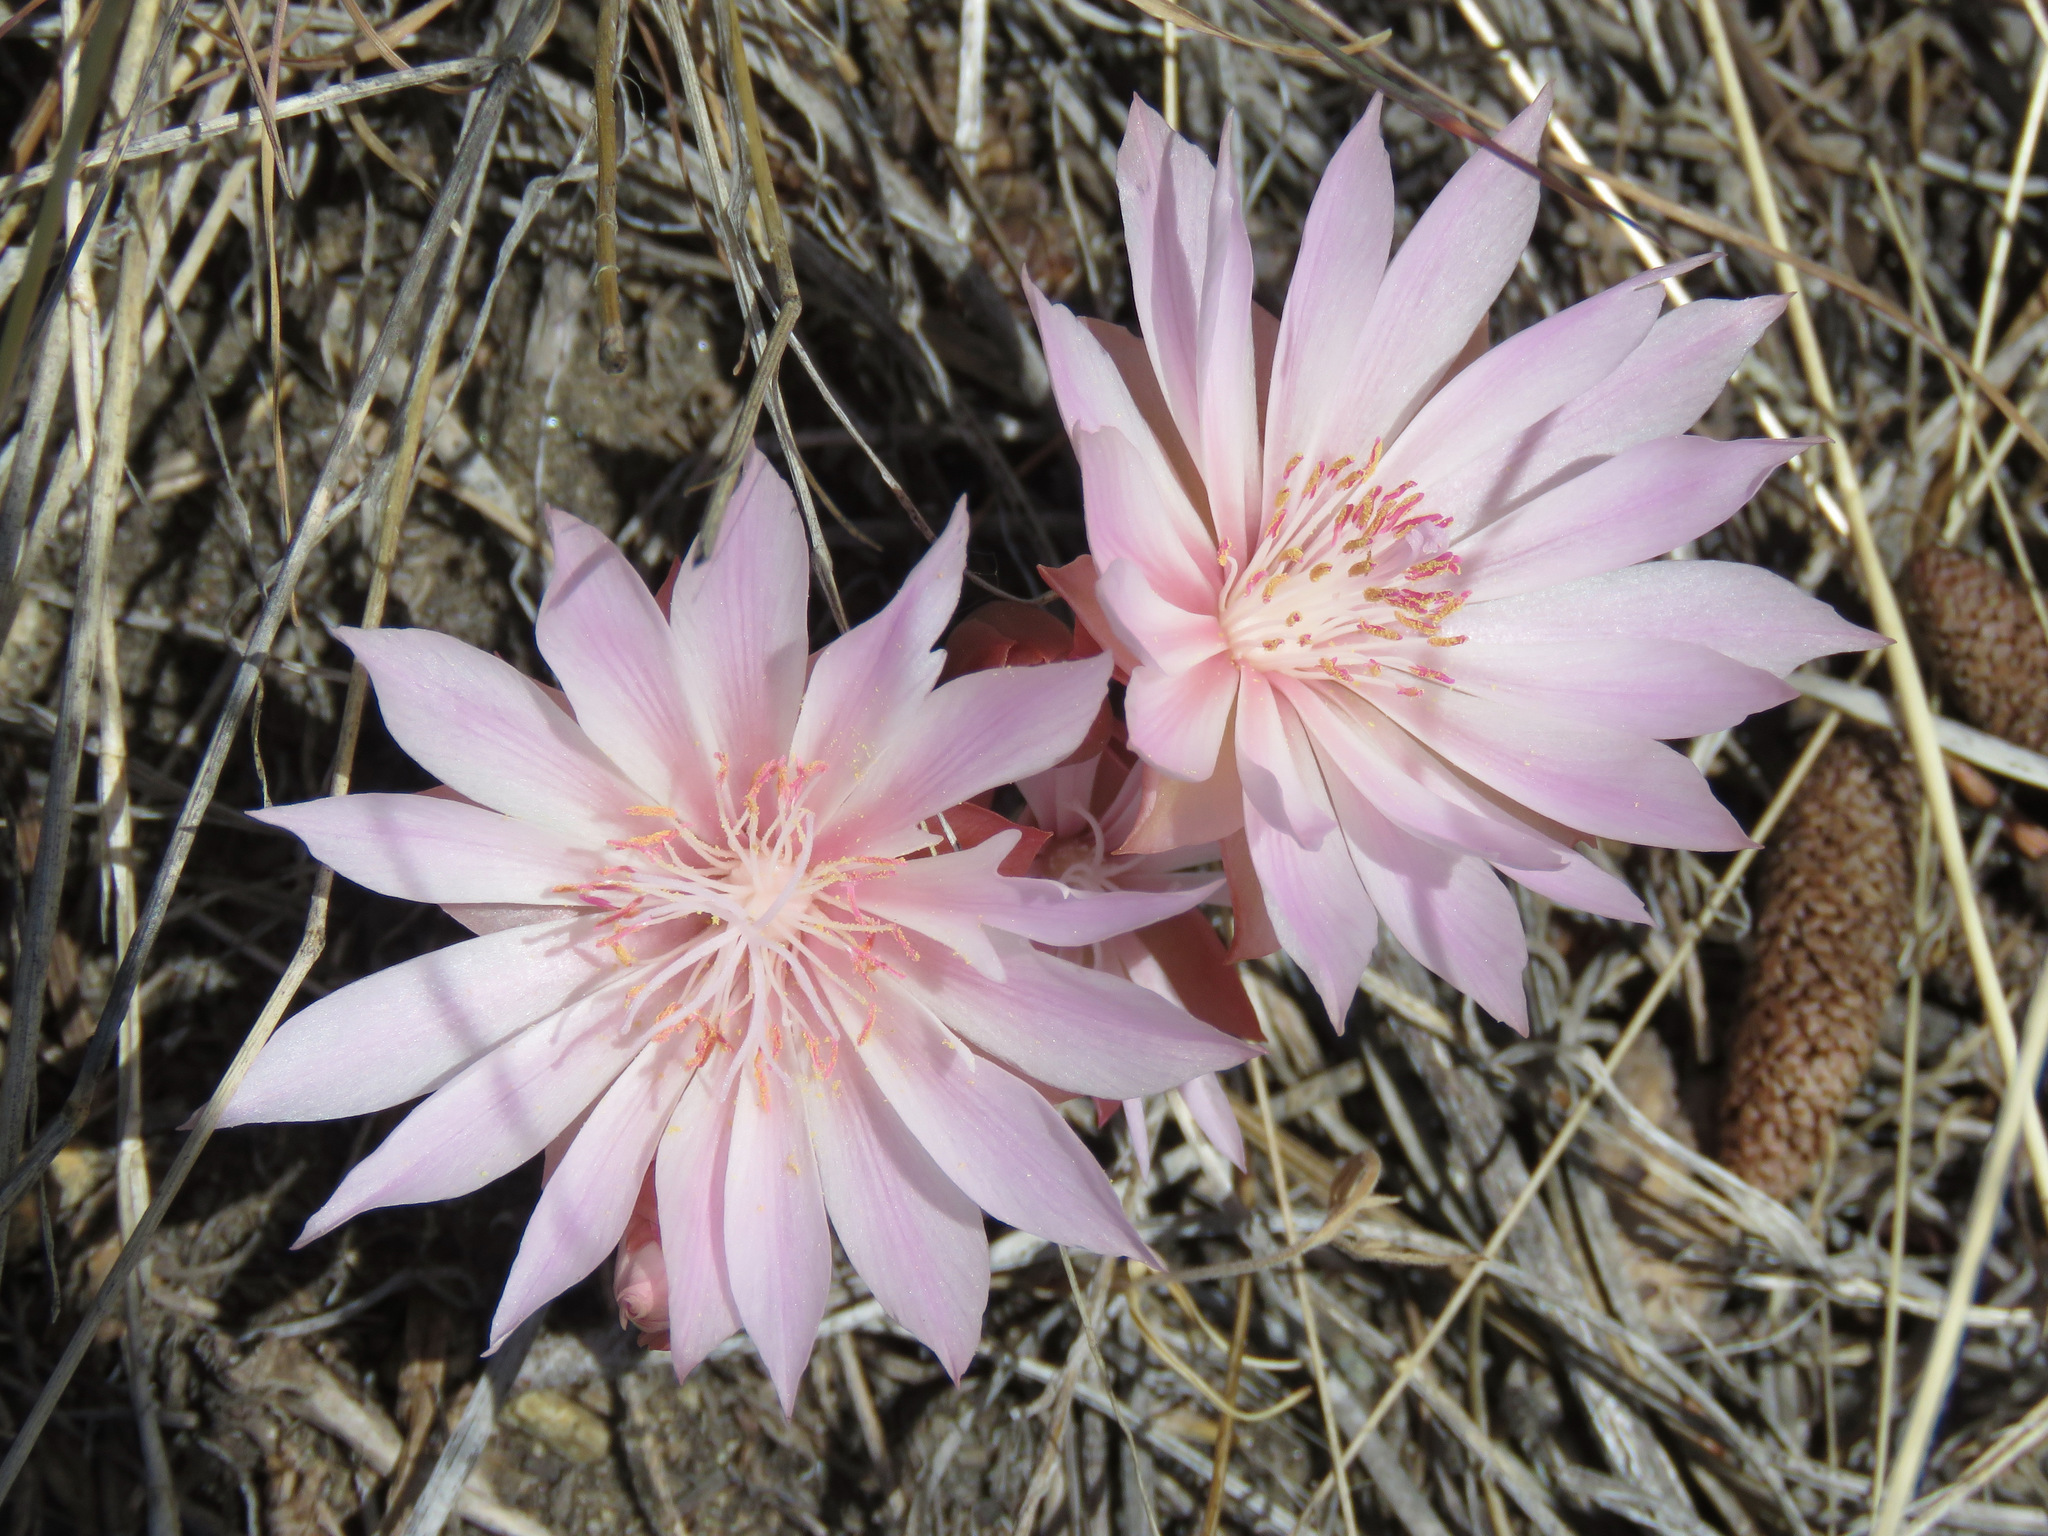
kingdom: Plantae
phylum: Tracheophyta
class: Magnoliopsida
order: Caryophyllales
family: Montiaceae
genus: Lewisia
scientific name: Lewisia rediviva
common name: Bitter-root
